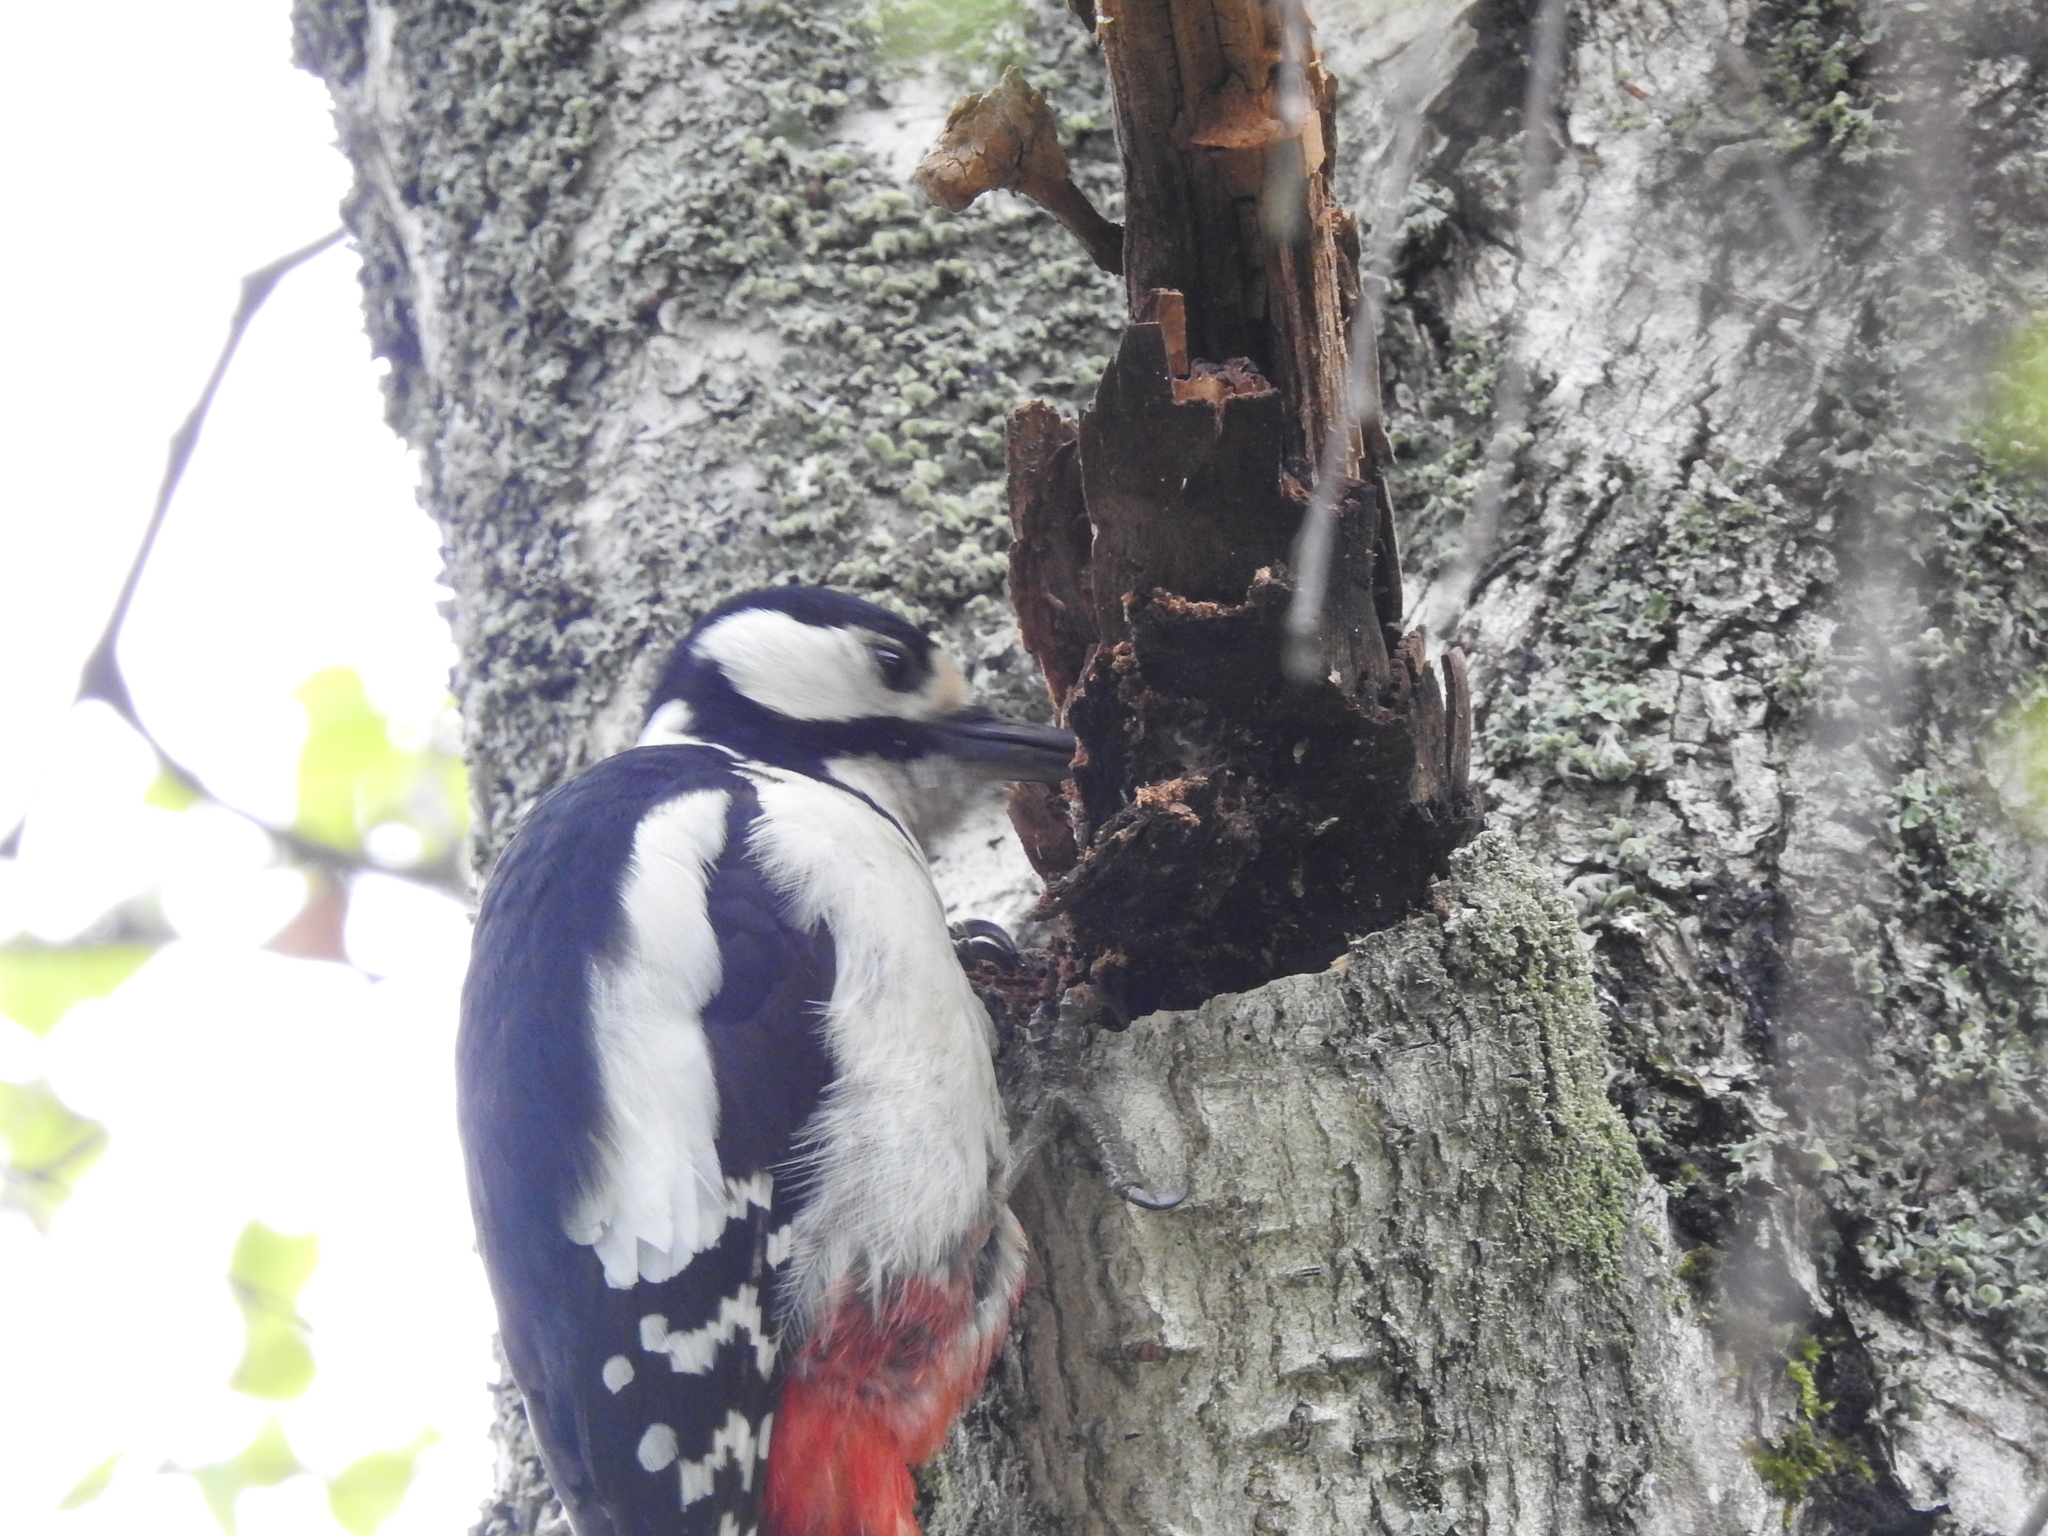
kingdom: Animalia
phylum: Chordata
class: Aves
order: Piciformes
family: Picidae
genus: Dendrocopos
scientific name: Dendrocopos major
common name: Great spotted woodpecker
